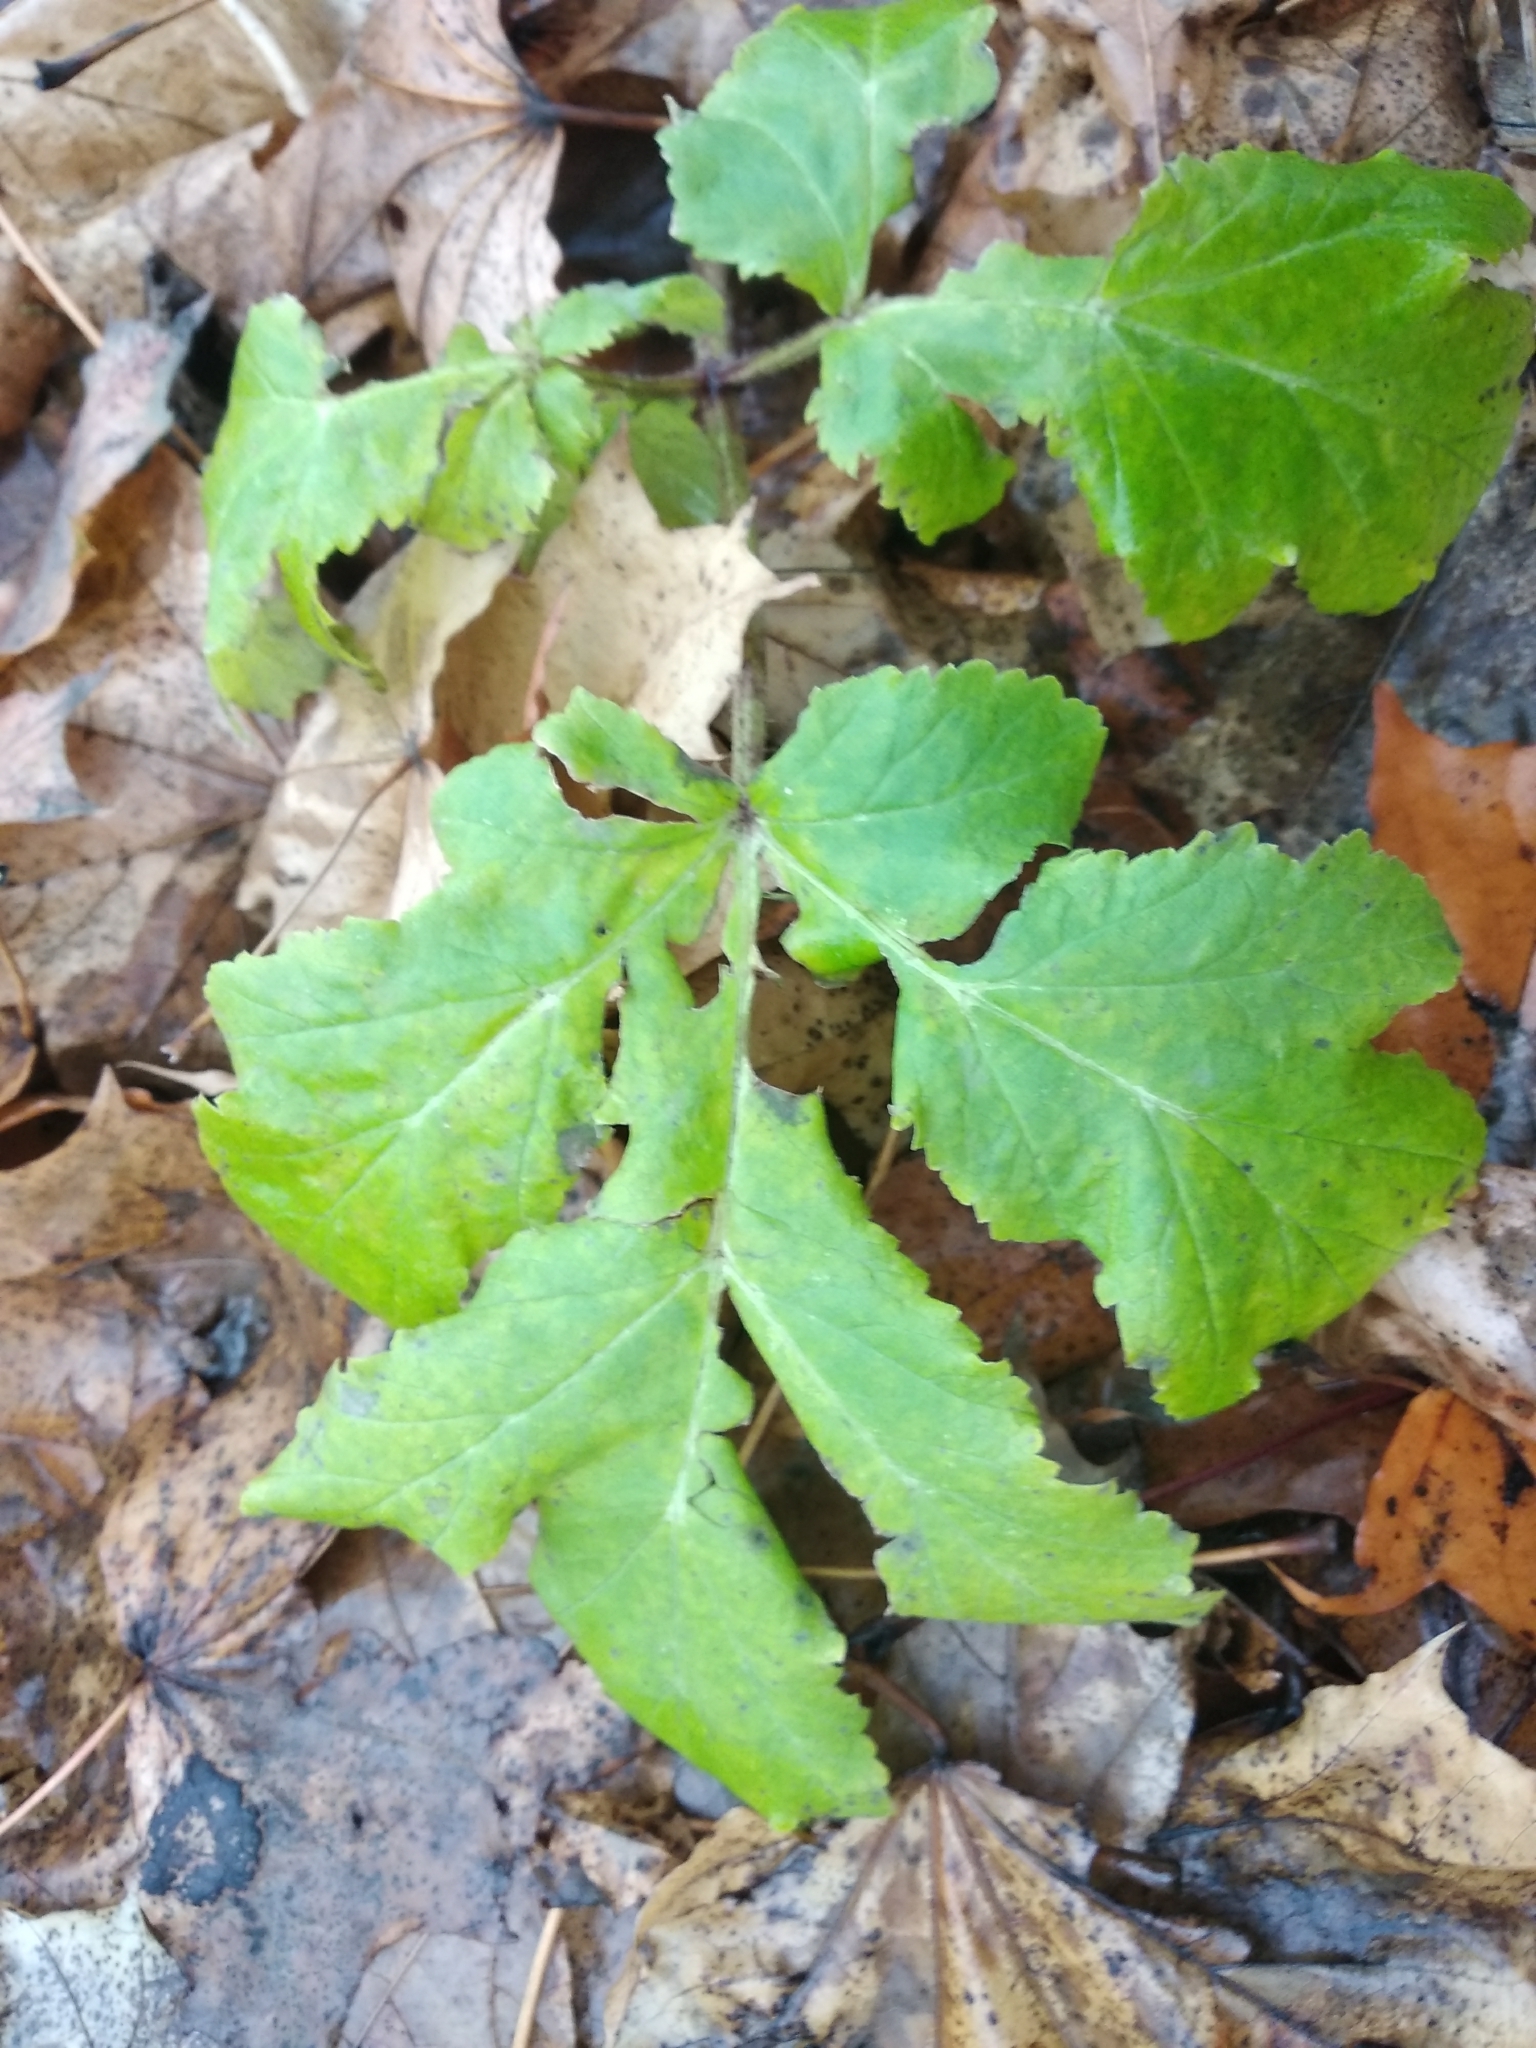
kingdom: Plantae
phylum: Tracheophyta
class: Magnoliopsida
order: Apiales
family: Apiaceae
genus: Heracleum
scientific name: Heracleum sosnowskyi
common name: Sosnowsky's hogweed
